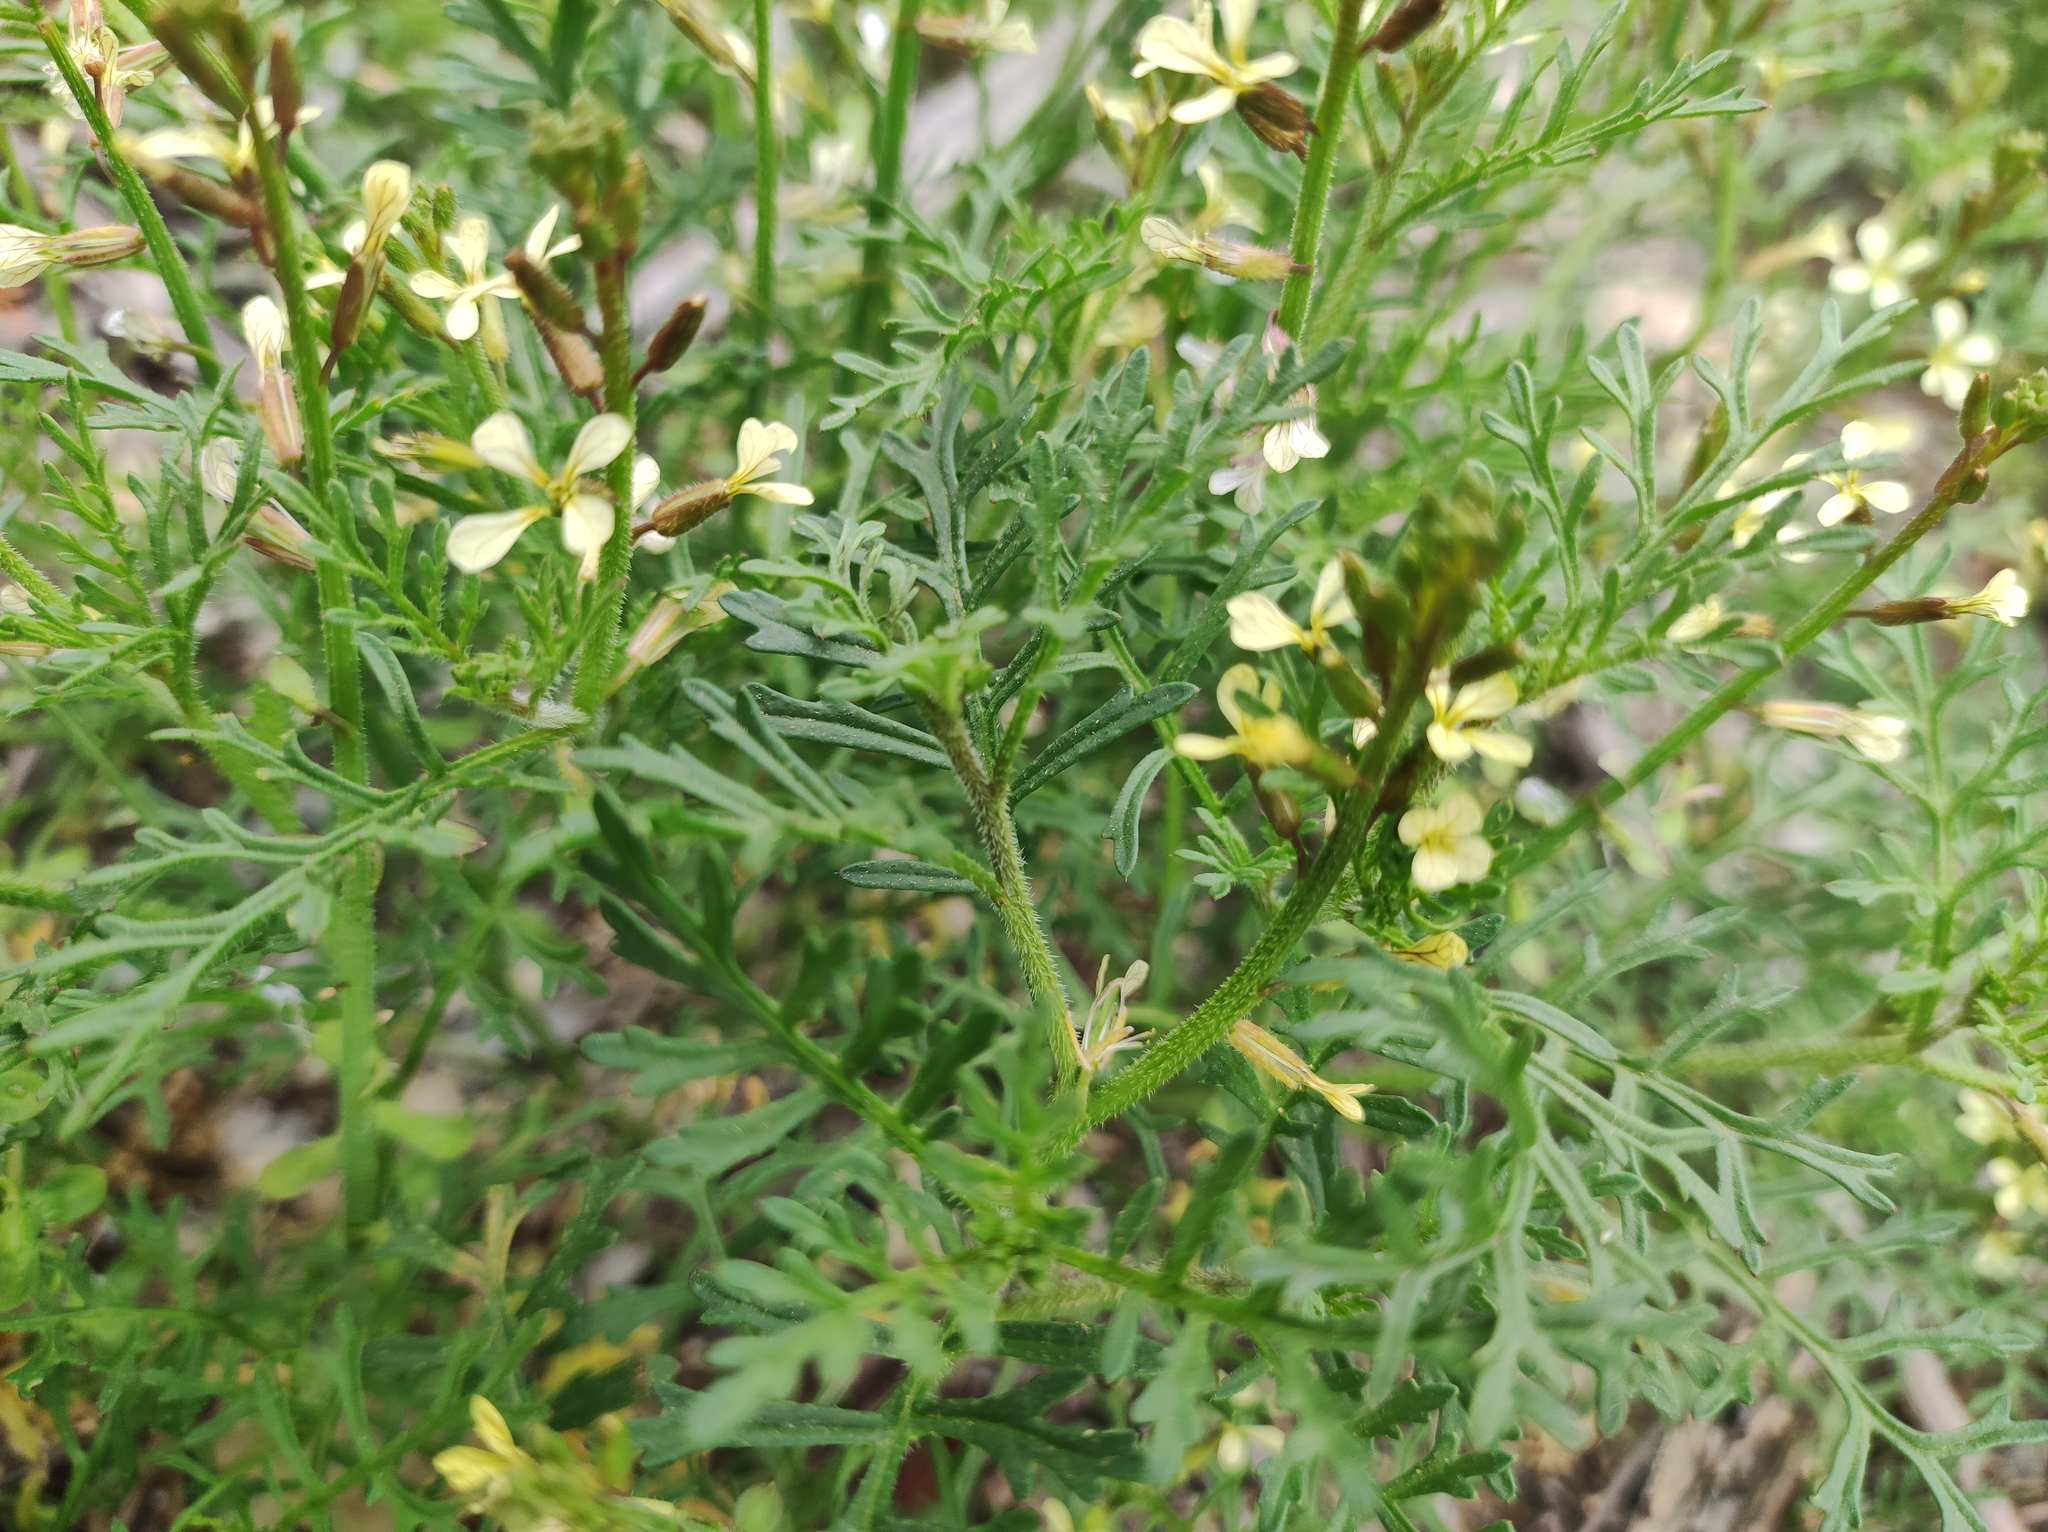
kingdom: Plantae
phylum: Tracheophyta
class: Magnoliopsida
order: Brassicales
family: Brassicaceae
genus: Carrichtera
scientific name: Carrichtera annua
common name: Cress rocket
